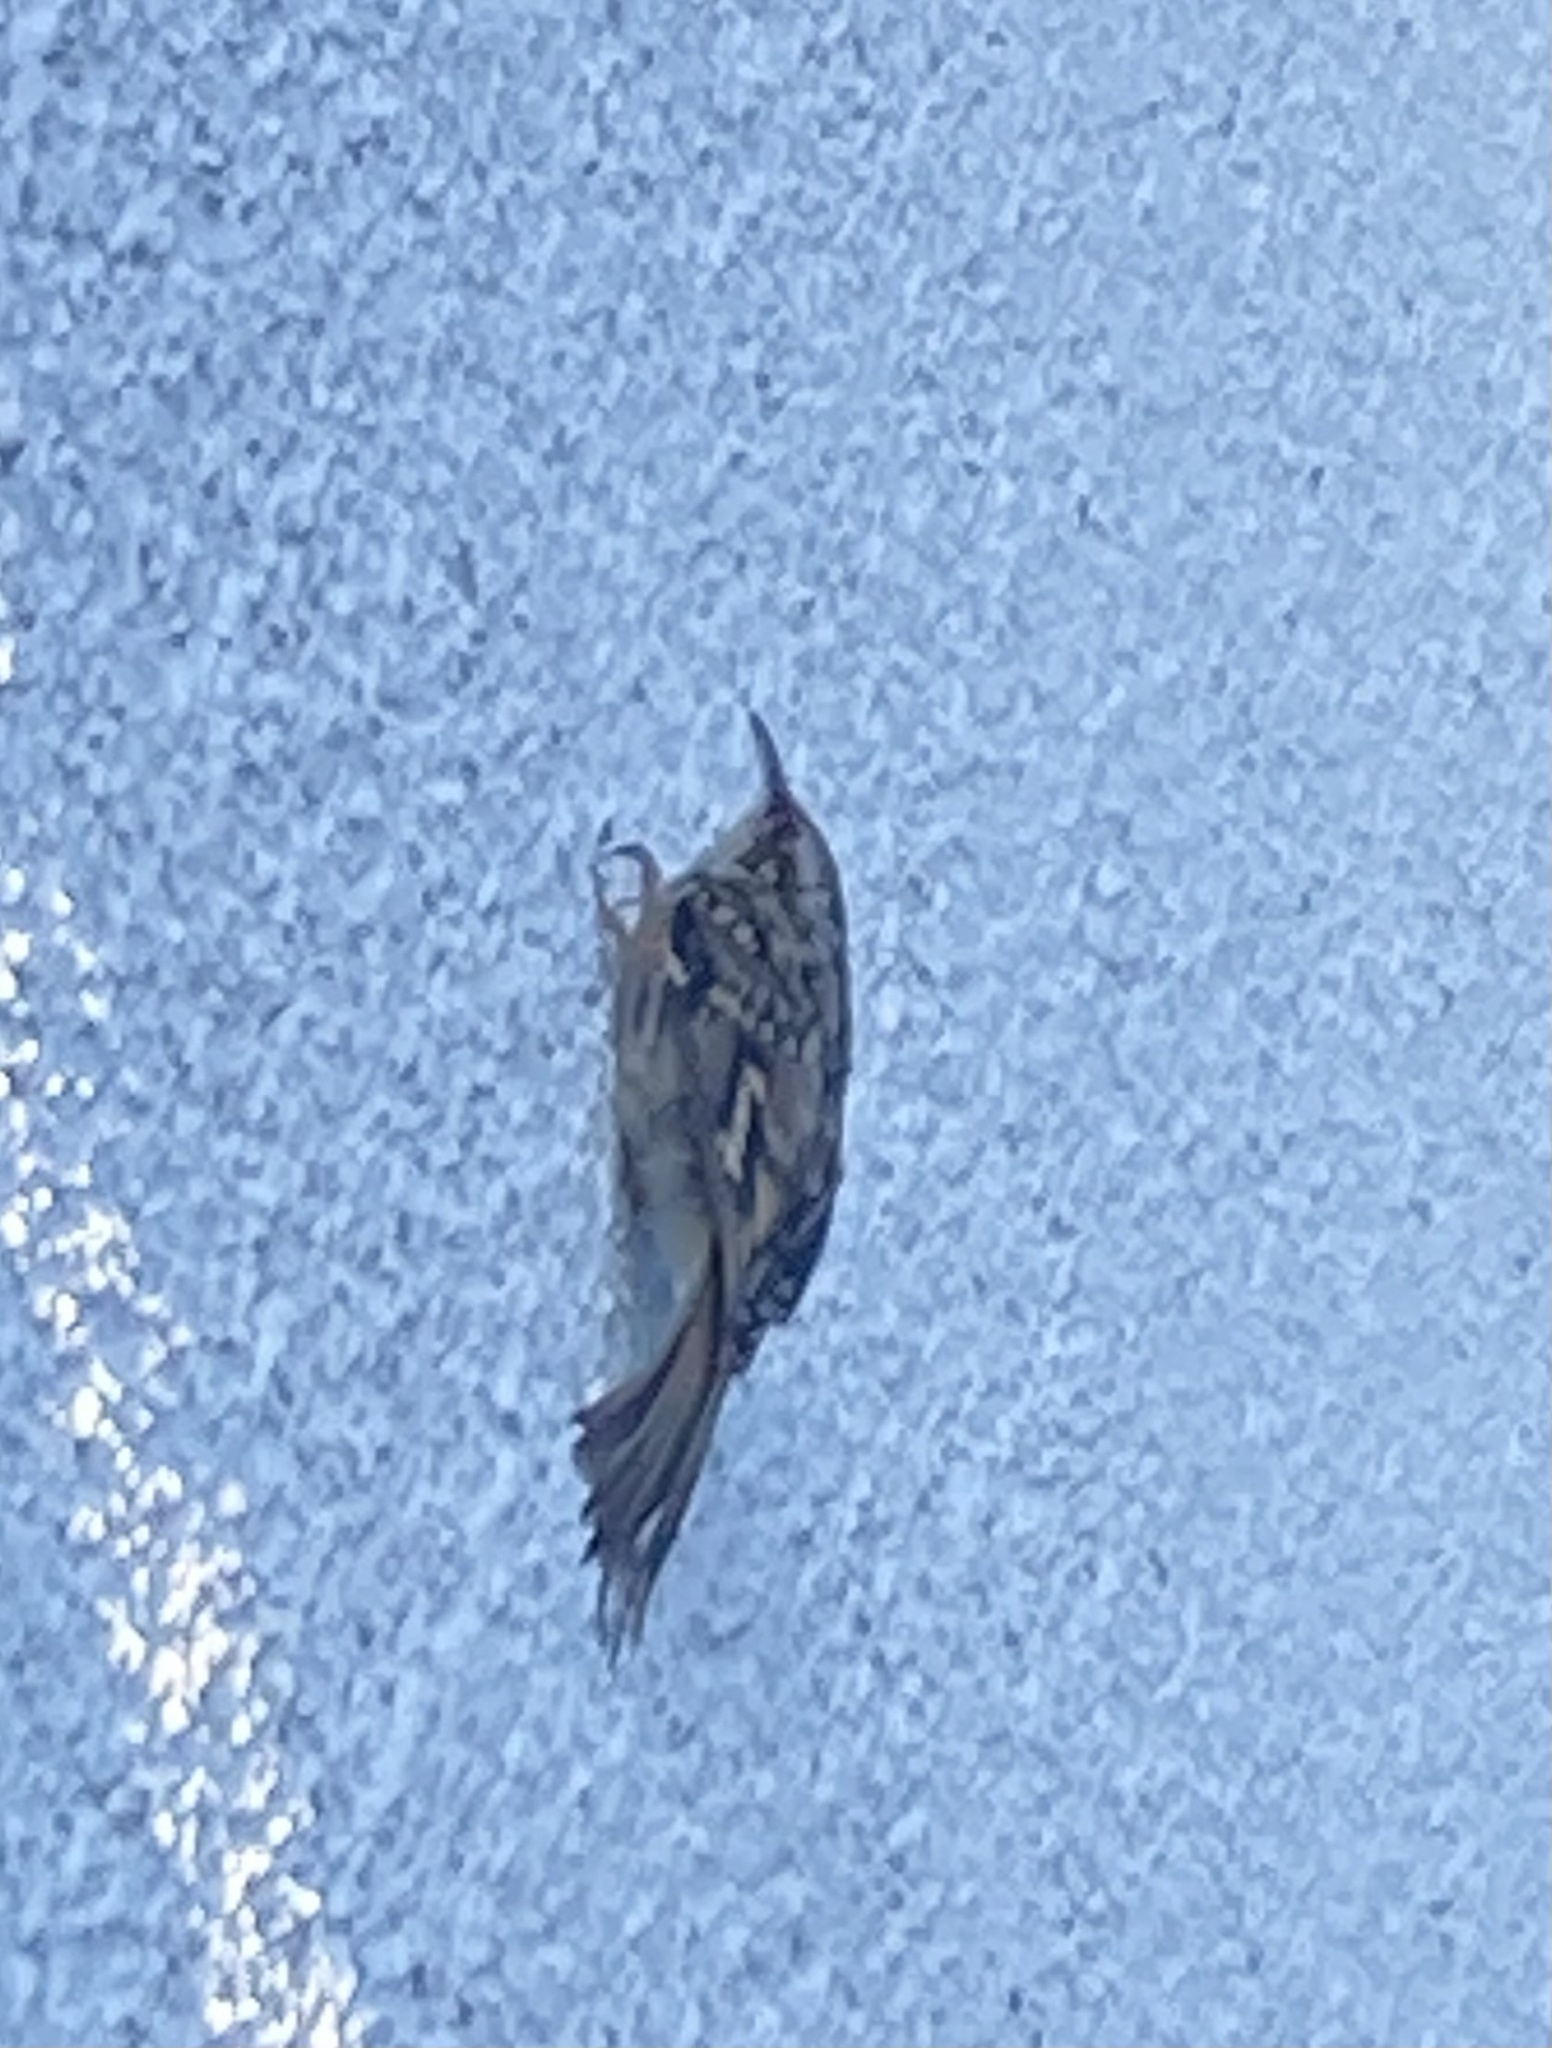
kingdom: Animalia
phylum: Chordata
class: Aves
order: Passeriformes
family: Certhiidae
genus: Certhia
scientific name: Certhia brachydactyla
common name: Short-toed treecreeper
